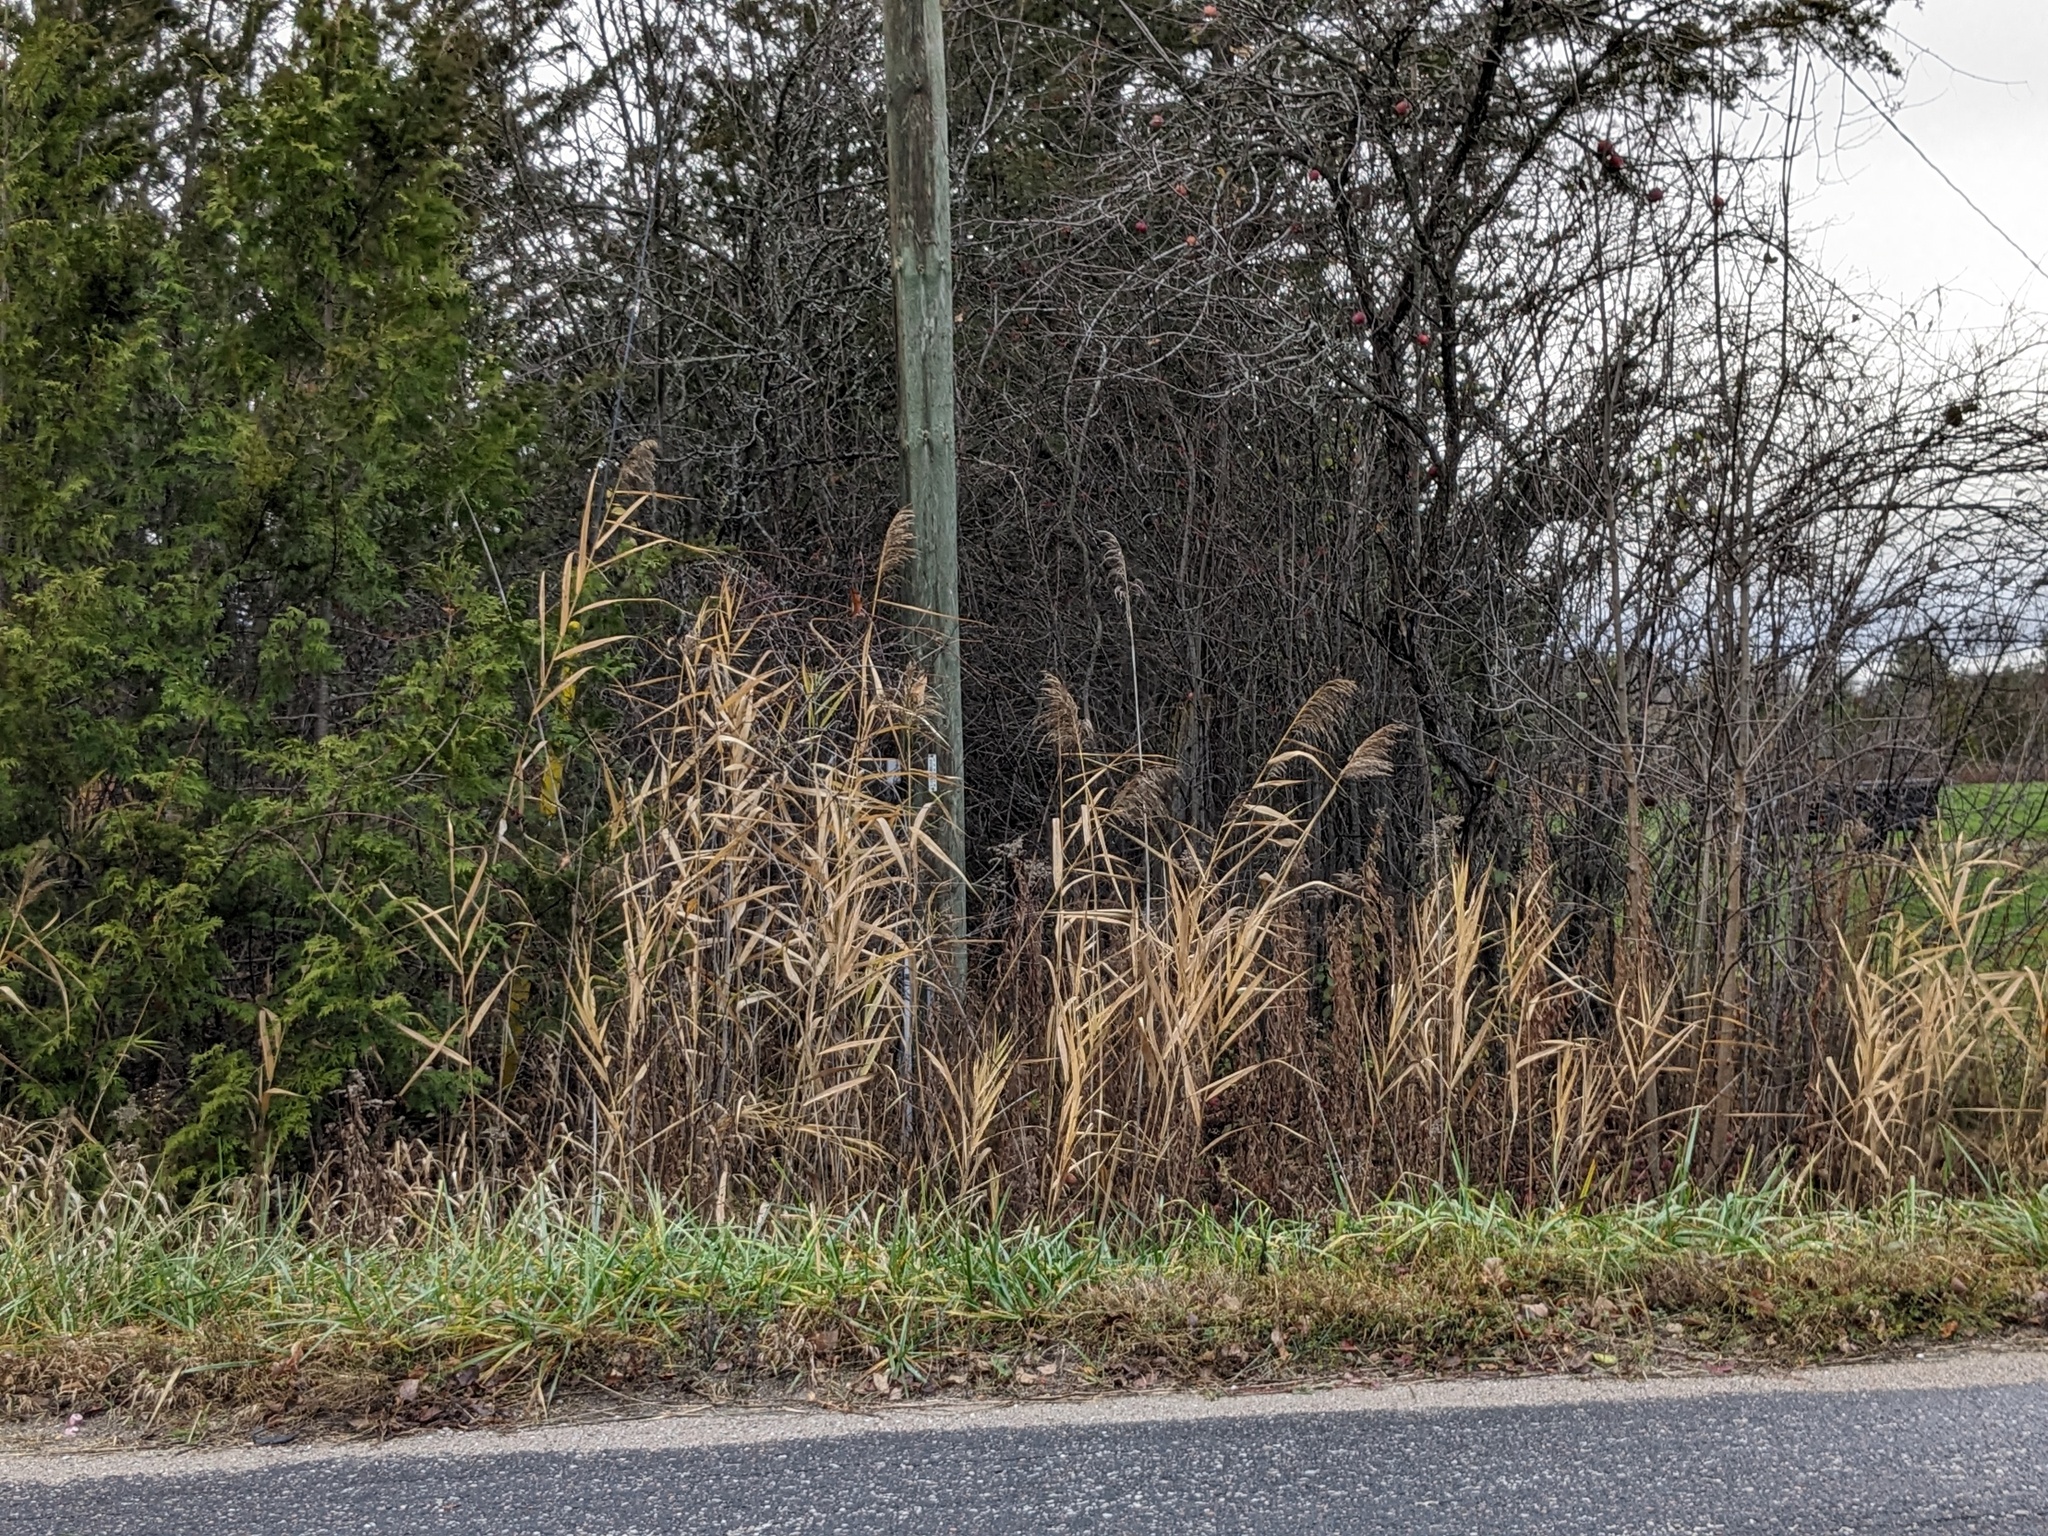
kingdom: Plantae
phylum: Tracheophyta
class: Liliopsida
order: Poales
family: Poaceae
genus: Phragmites
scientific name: Phragmites australis
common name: Common reed
